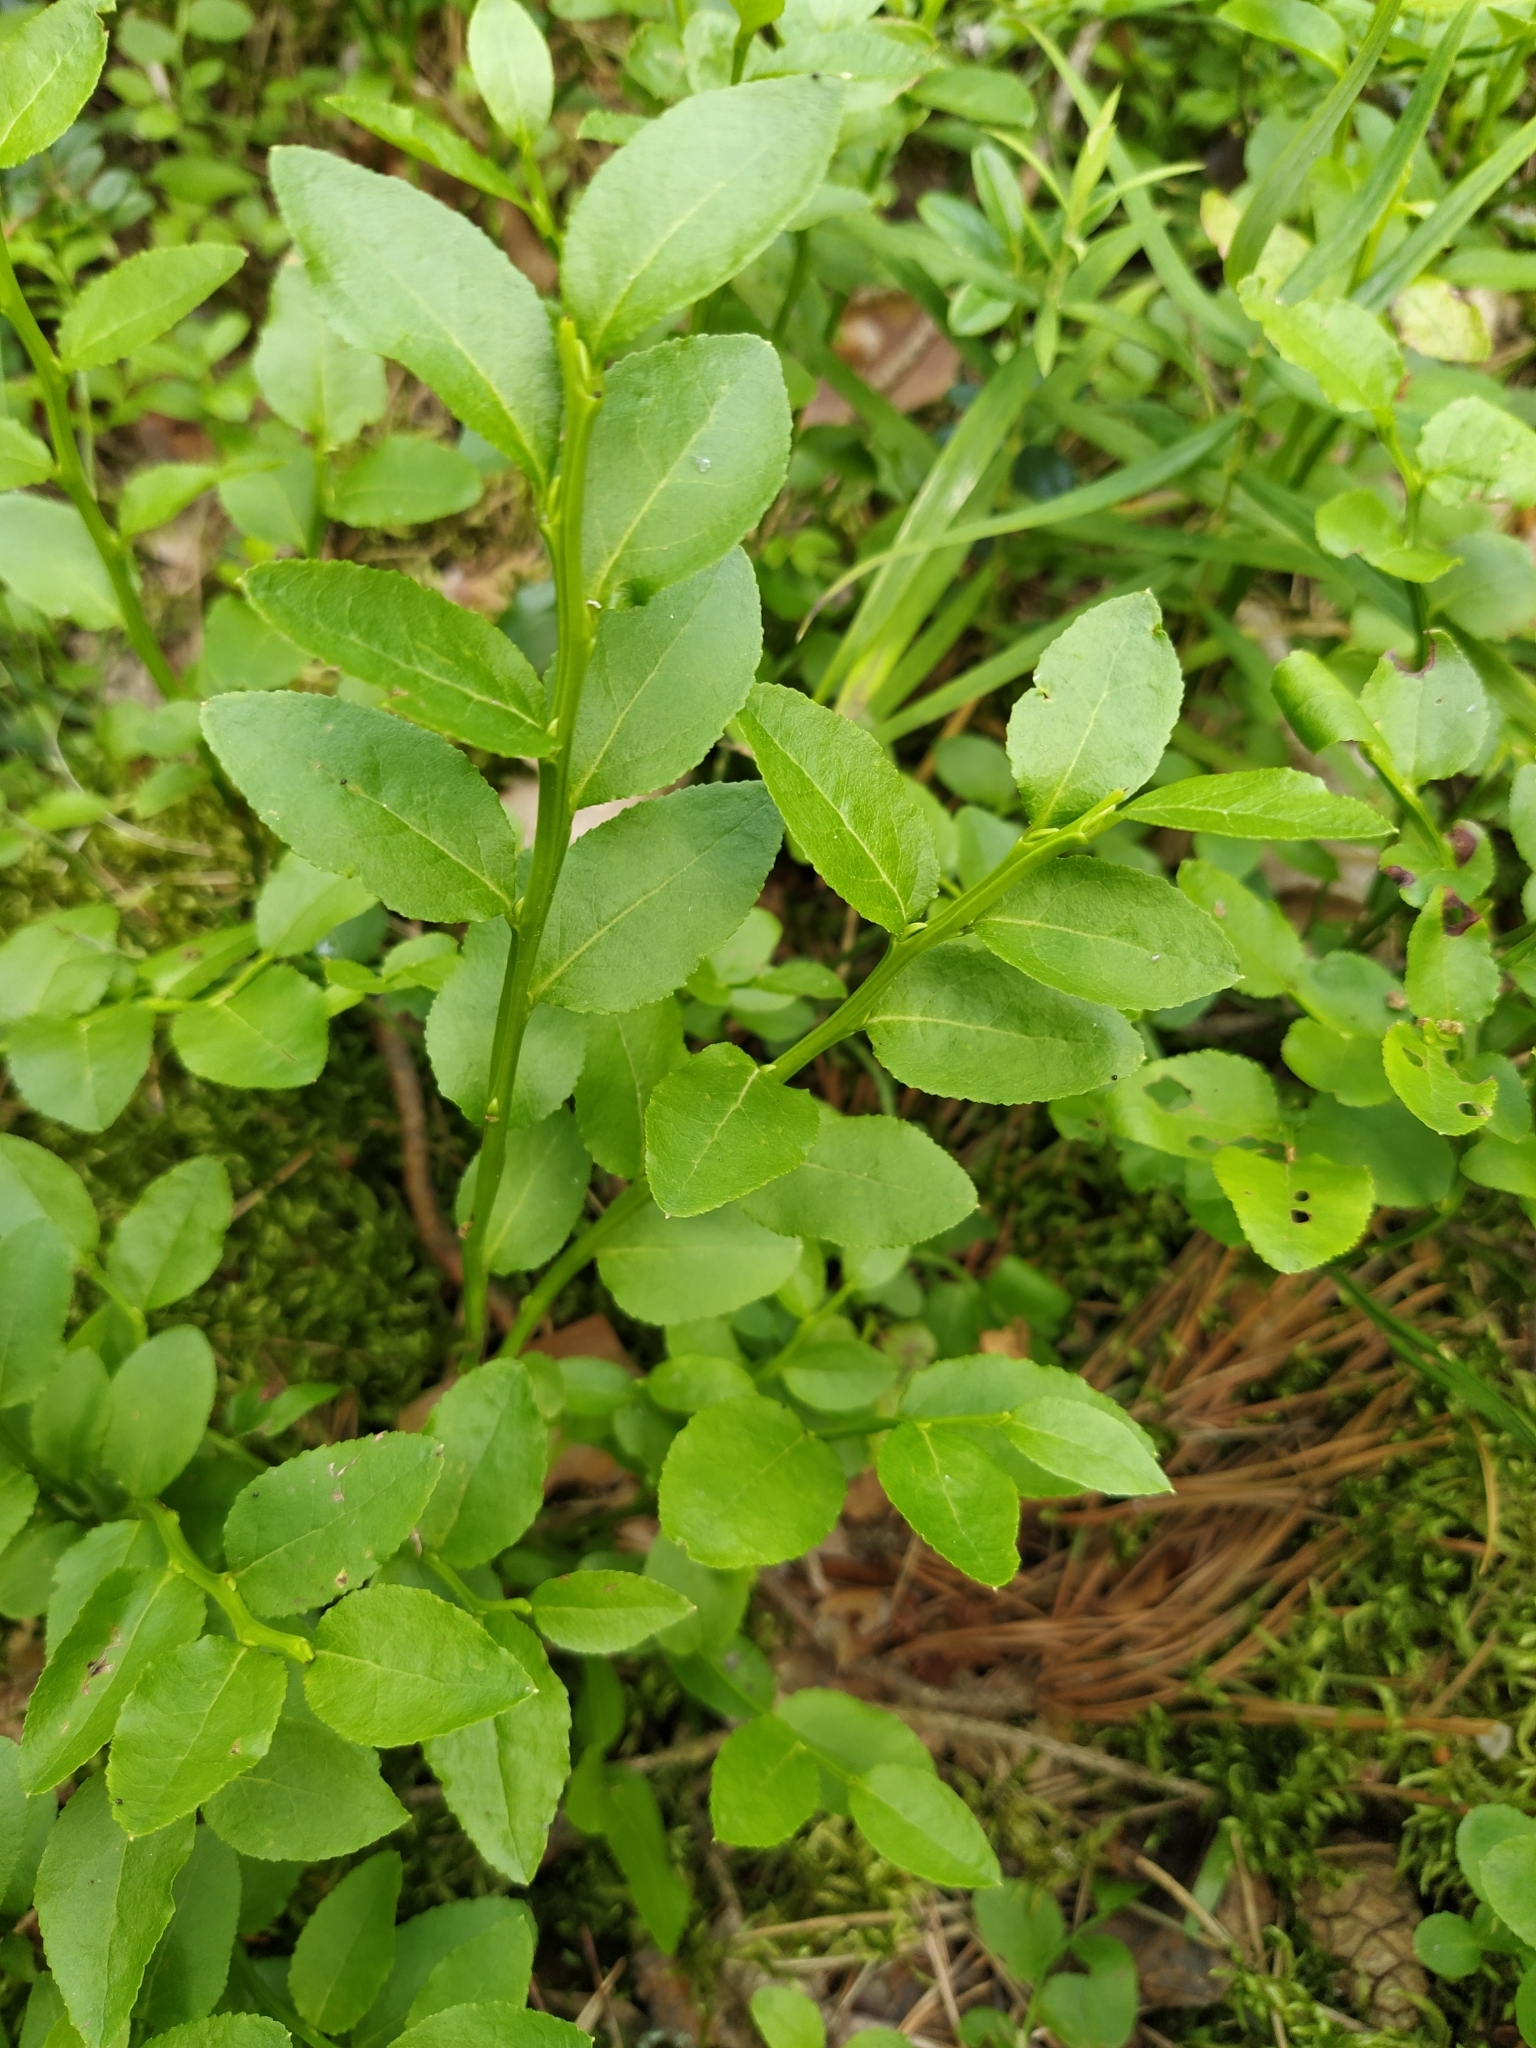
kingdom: Plantae
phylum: Tracheophyta
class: Magnoliopsida
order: Ericales
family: Ericaceae
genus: Vaccinium
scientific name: Vaccinium myrtillus
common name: Bilberry
